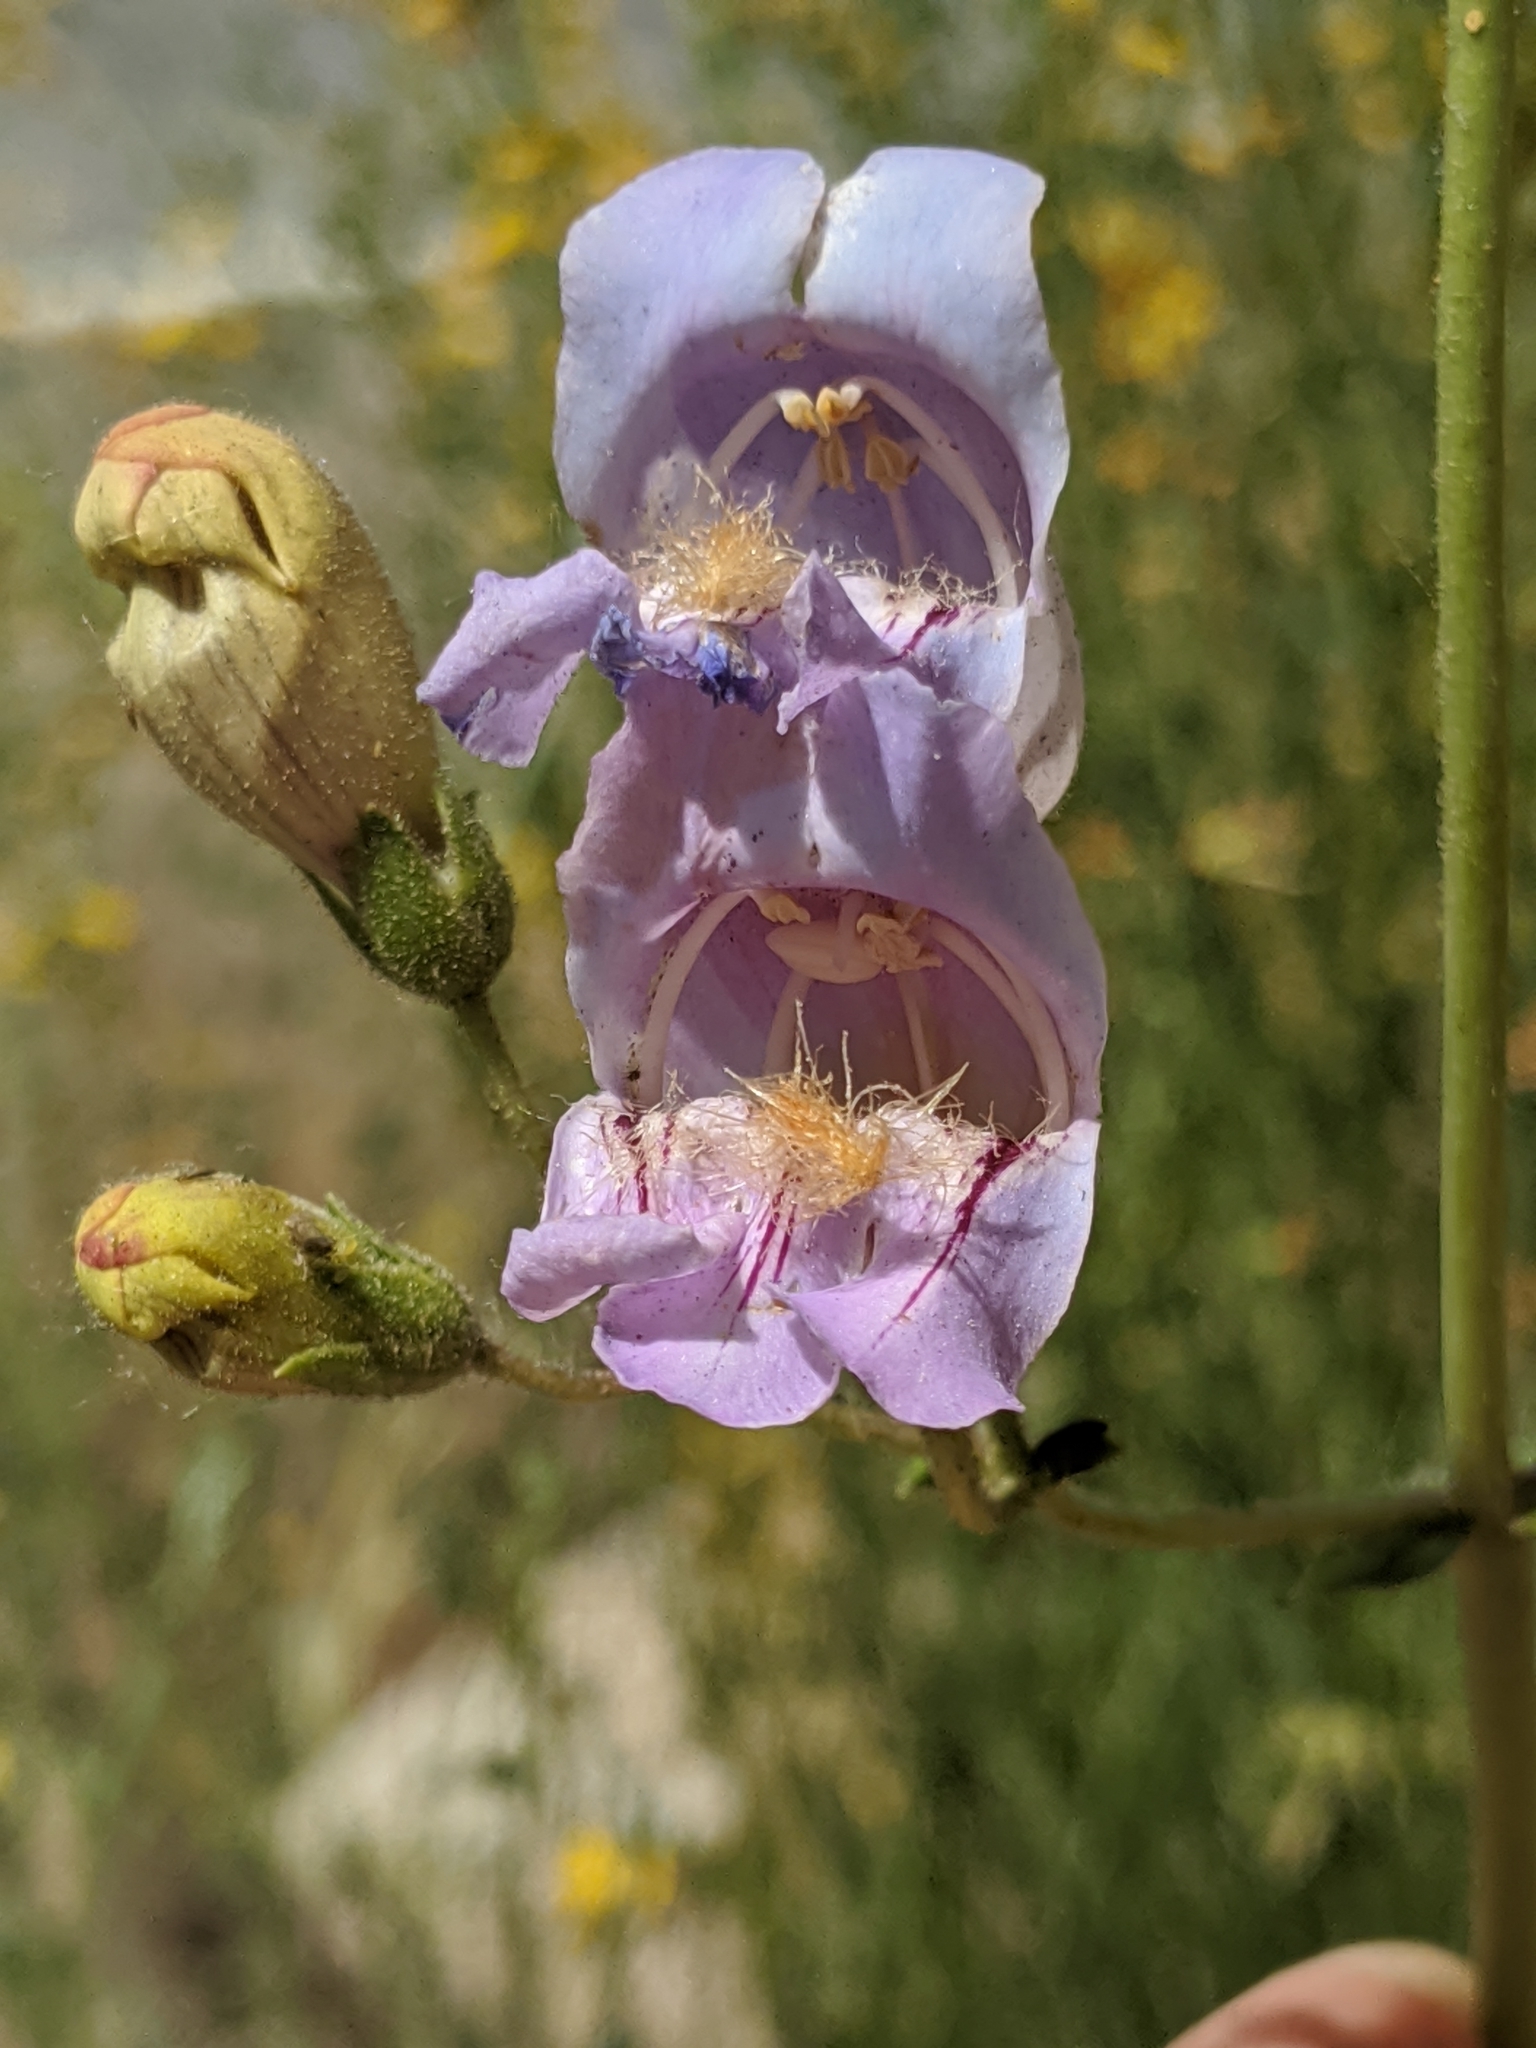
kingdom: Plantae
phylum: Tracheophyta
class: Magnoliopsida
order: Lamiales
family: Plantaginaceae
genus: Penstemon
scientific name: Penstemon grinnellii
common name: Grinnell's beardtongue
